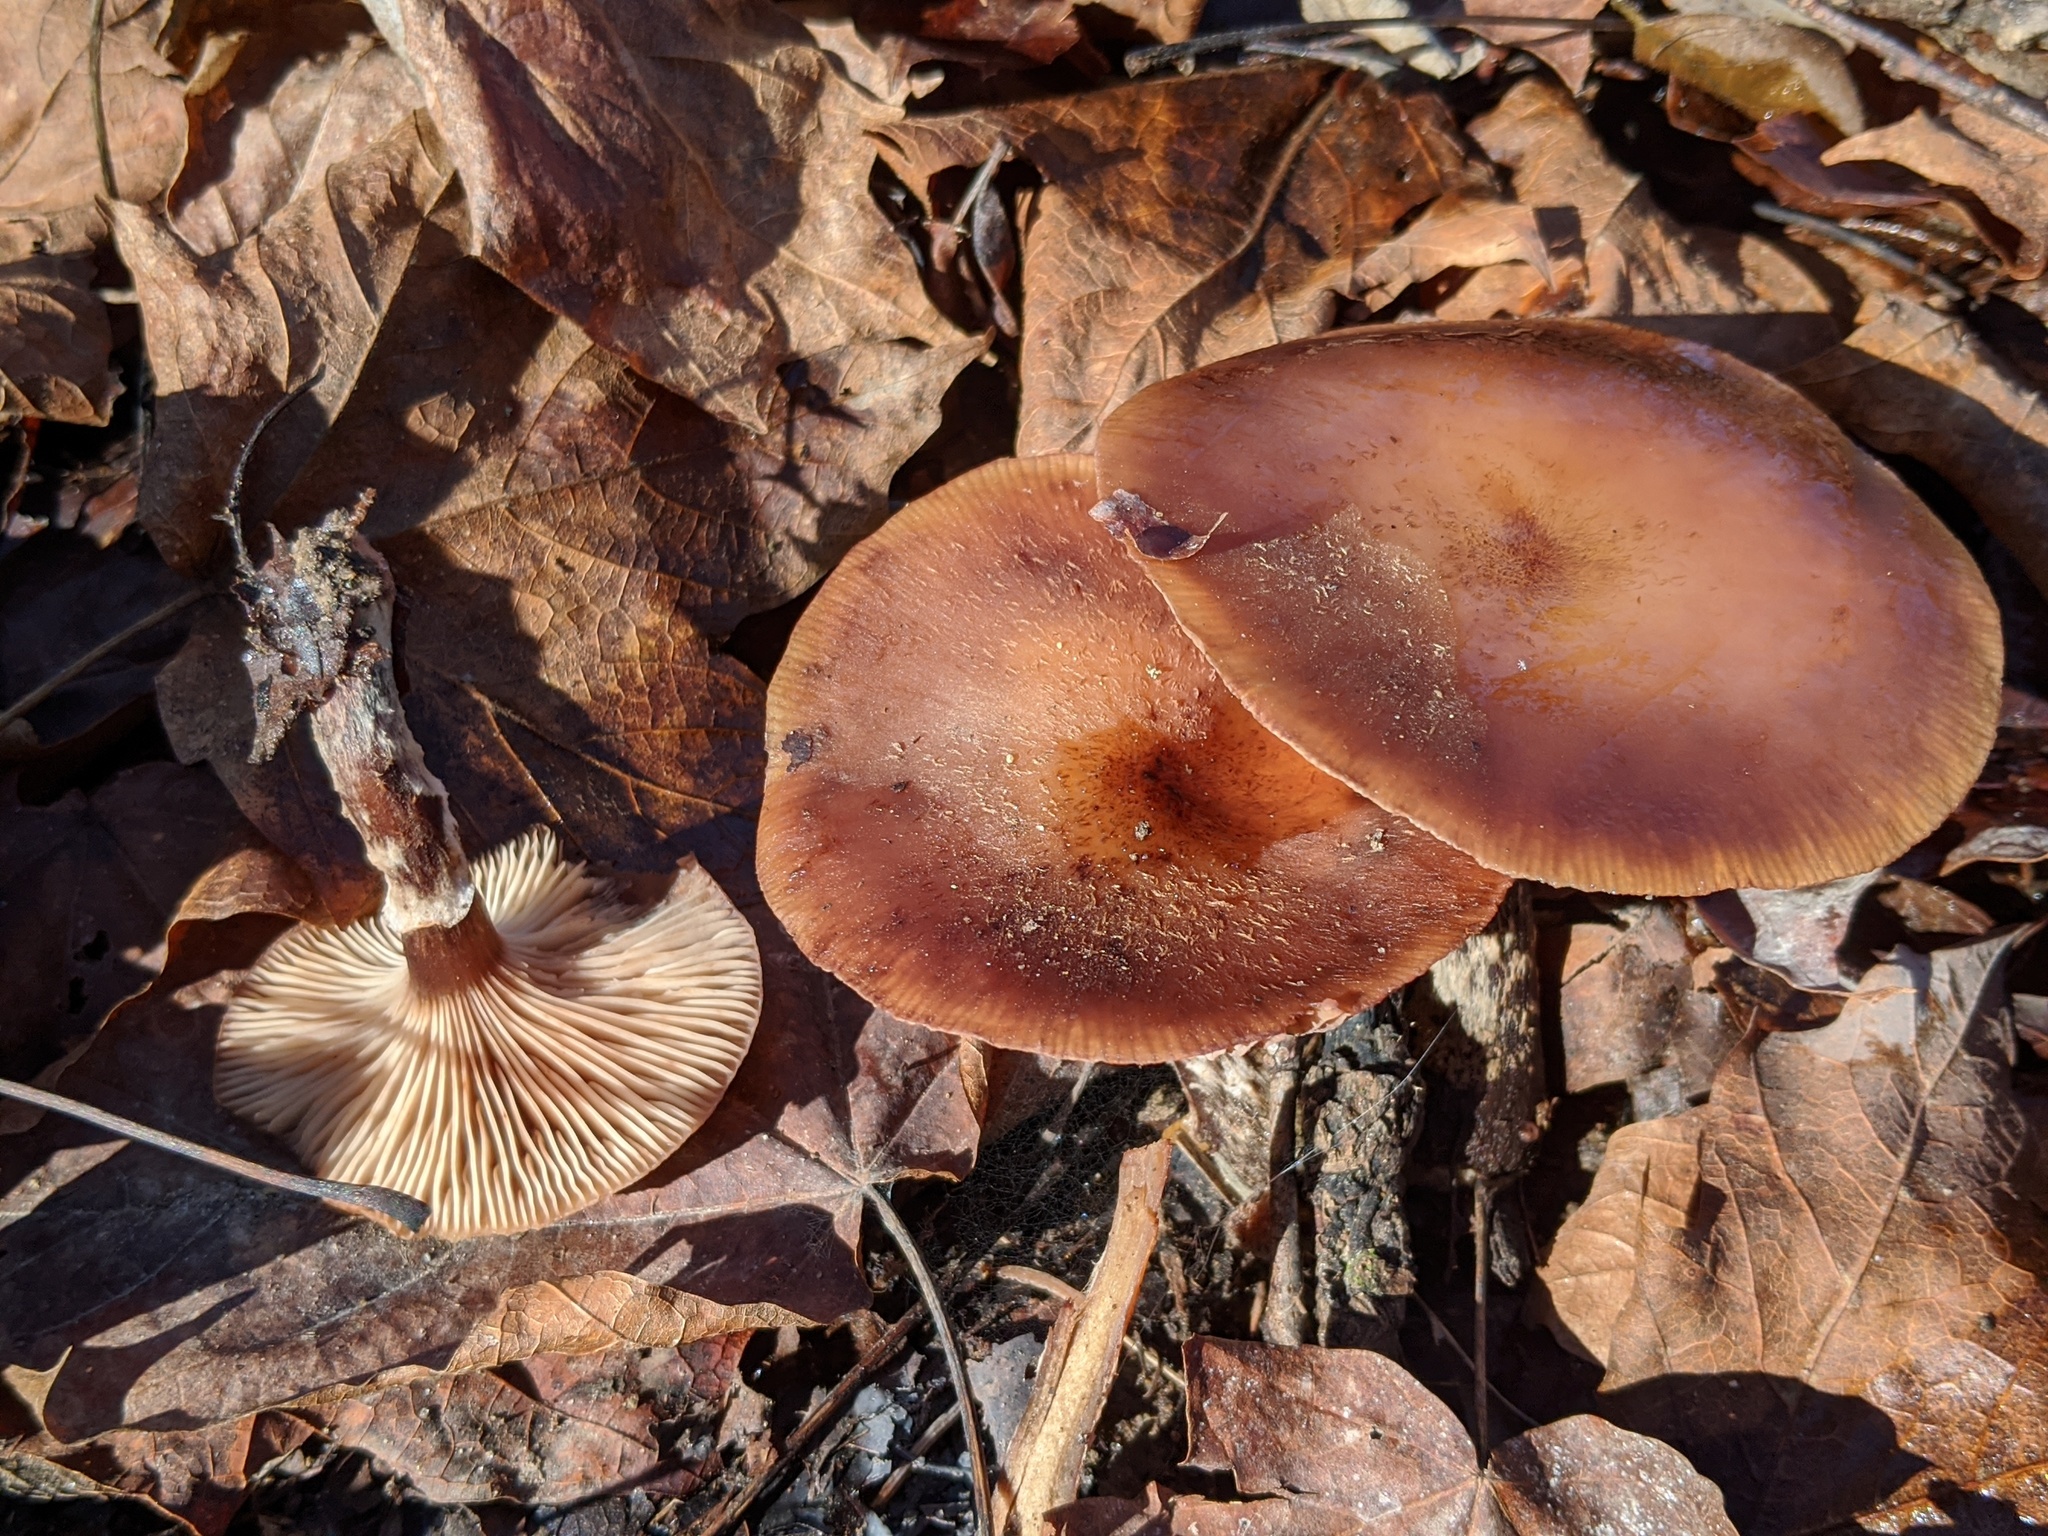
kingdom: Fungi
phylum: Basidiomycota
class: Agaricomycetes
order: Agaricales
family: Physalacriaceae
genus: Armillaria
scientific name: Armillaria gallica
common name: Bulbous honey fungus
